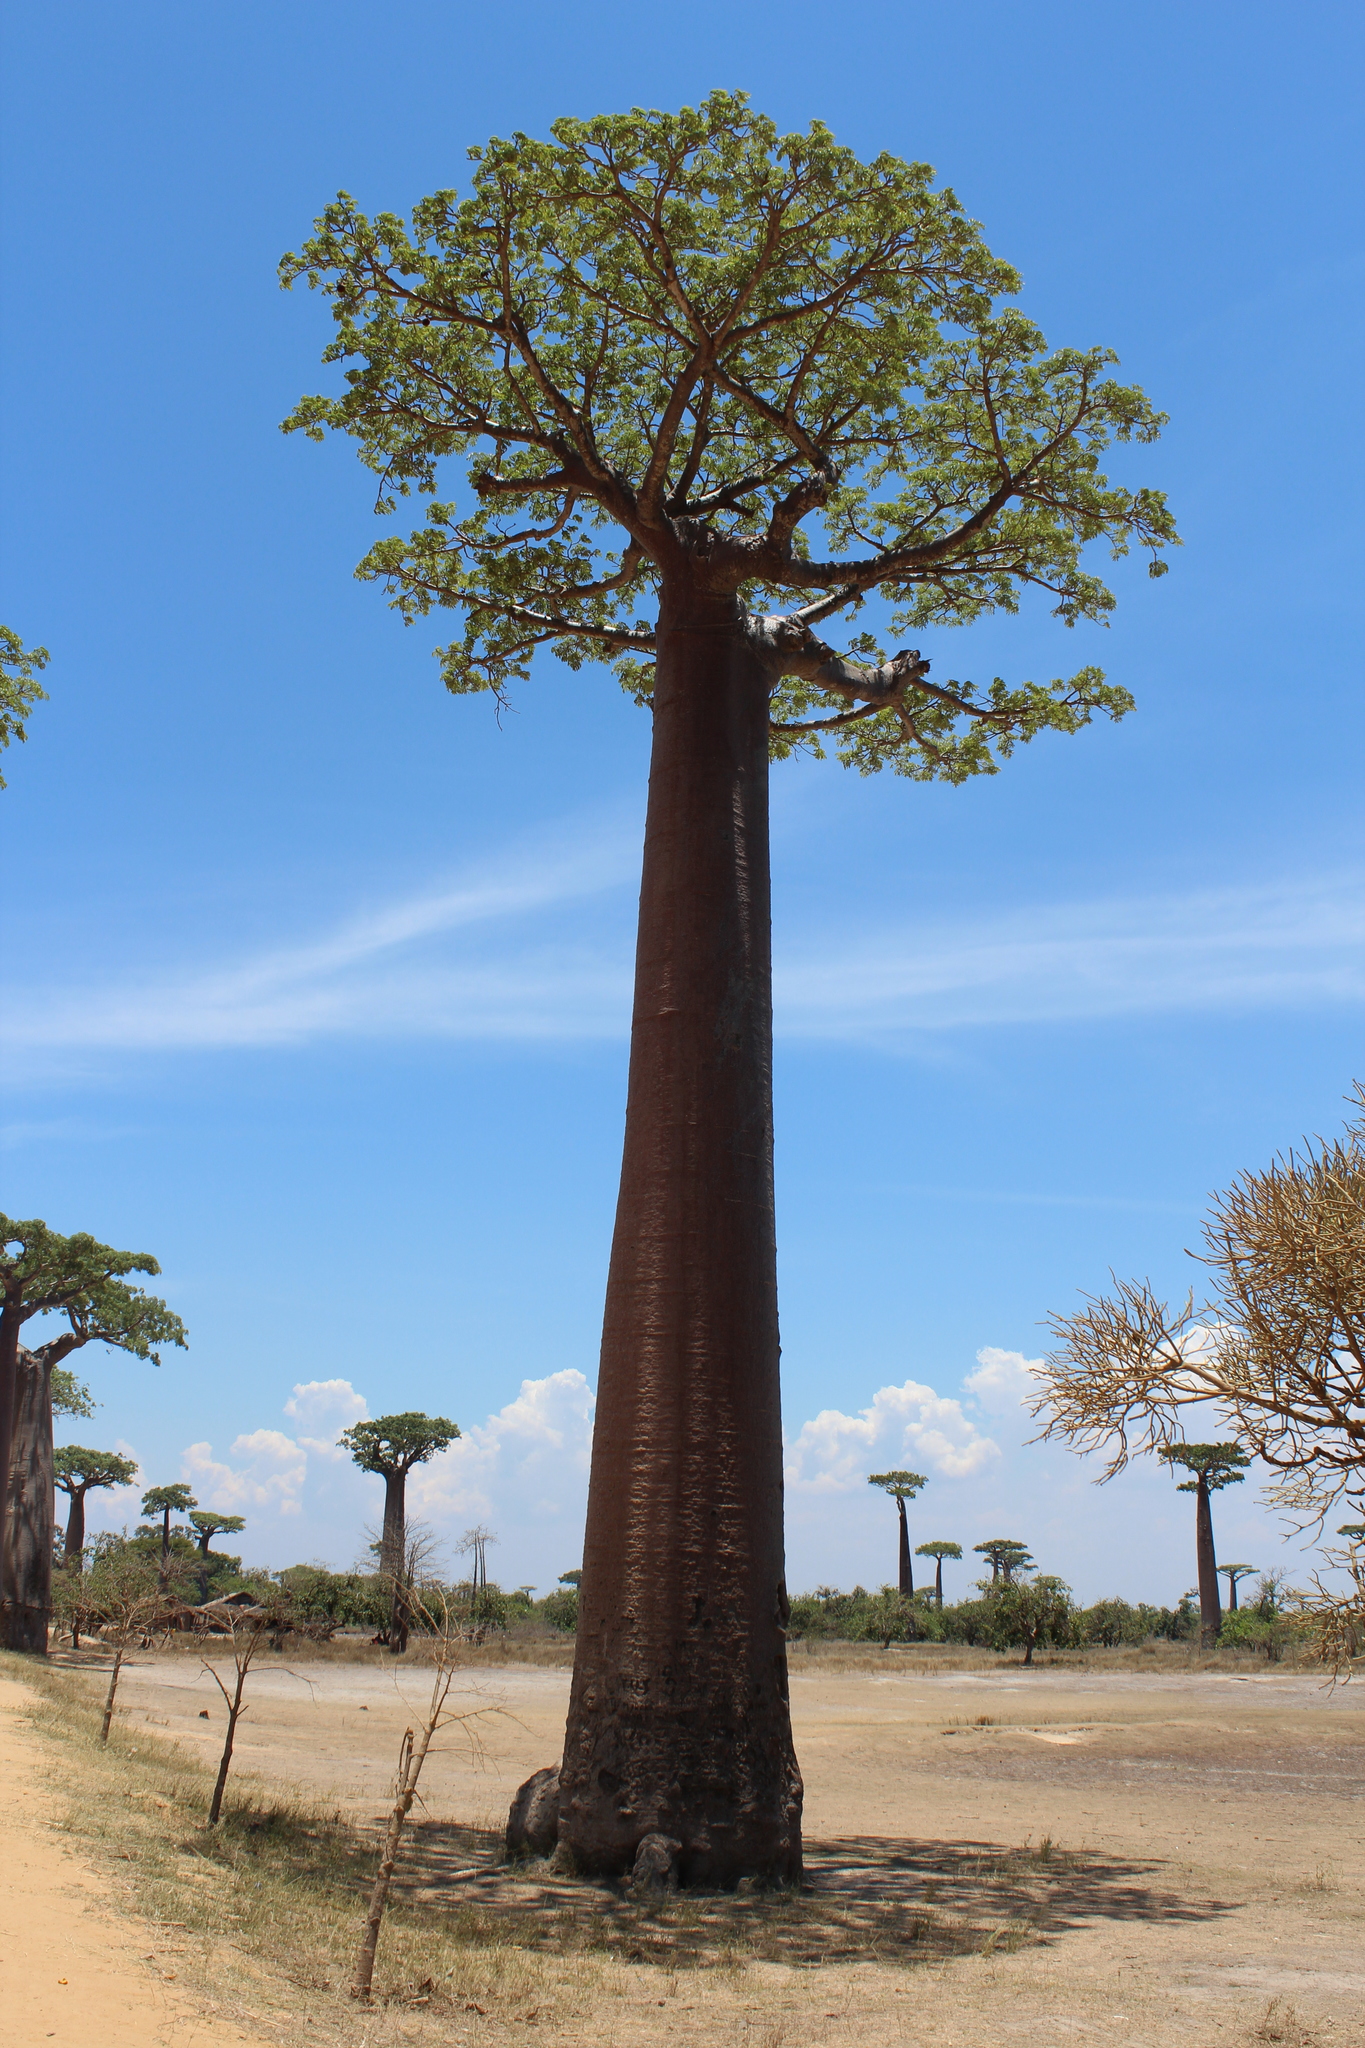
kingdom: Plantae
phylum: Tracheophyta
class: Magnoliopsida
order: Malvales
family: Malvaceae
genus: Adansonia
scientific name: Adansonia grandidieri
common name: Grandidier's baobab
